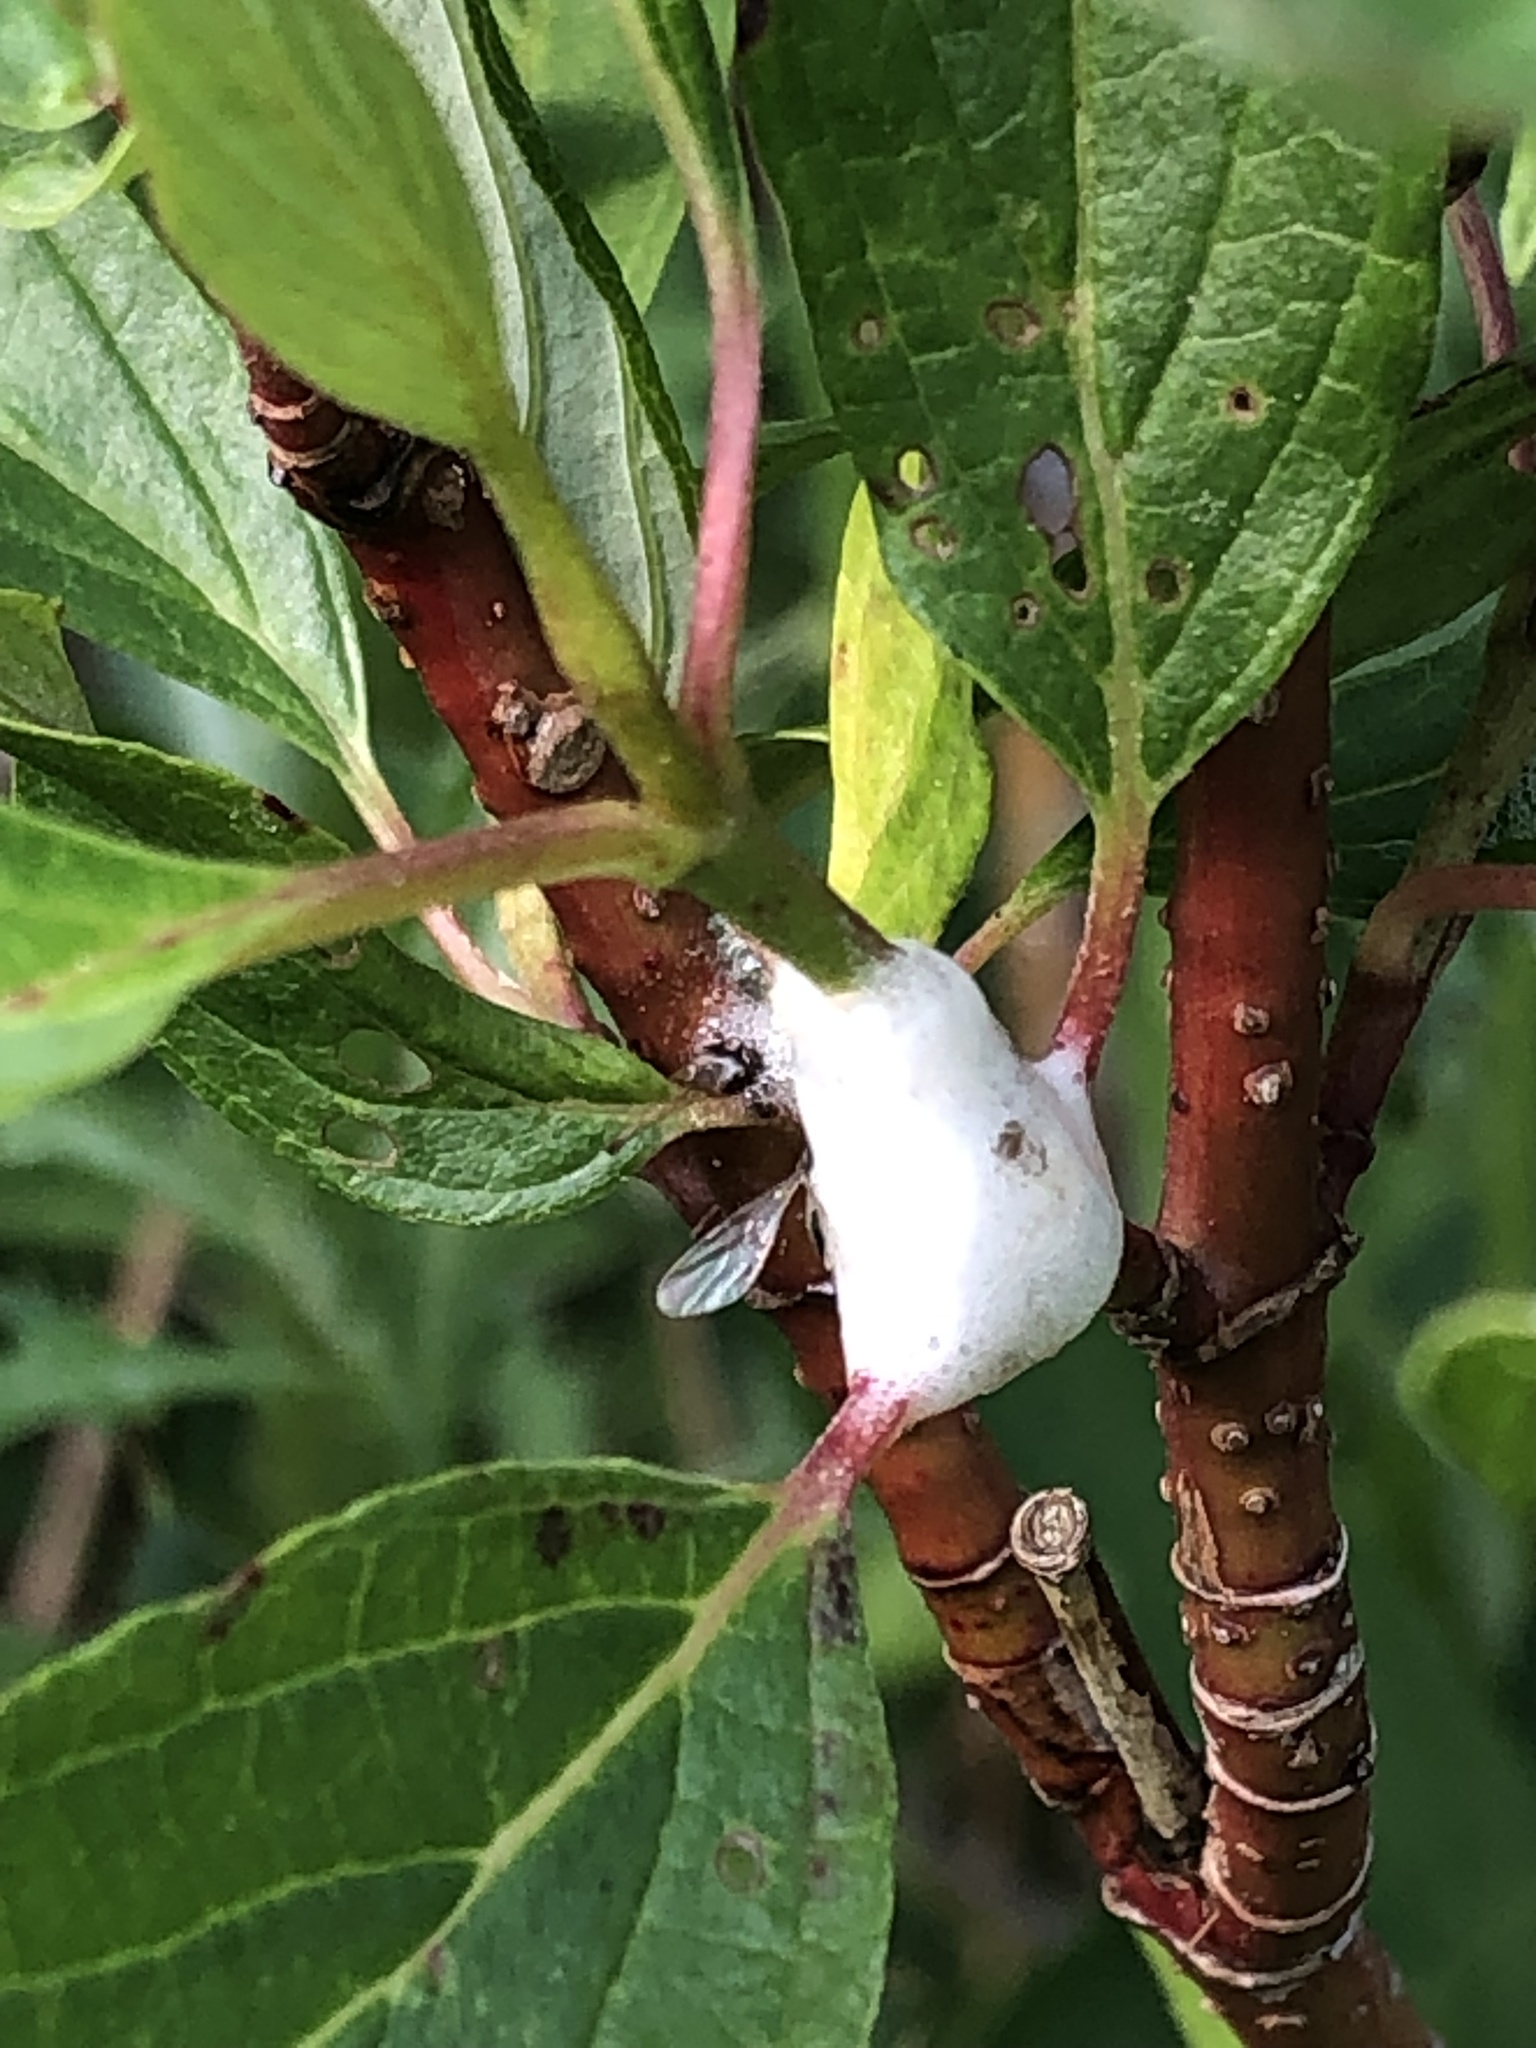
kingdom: Animalia
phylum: Arthropoda
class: Insecta
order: Hemiptera
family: Clastopteridae
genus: Clastoptera
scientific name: Clastoptera proteus
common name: Dogwood spittlebug
